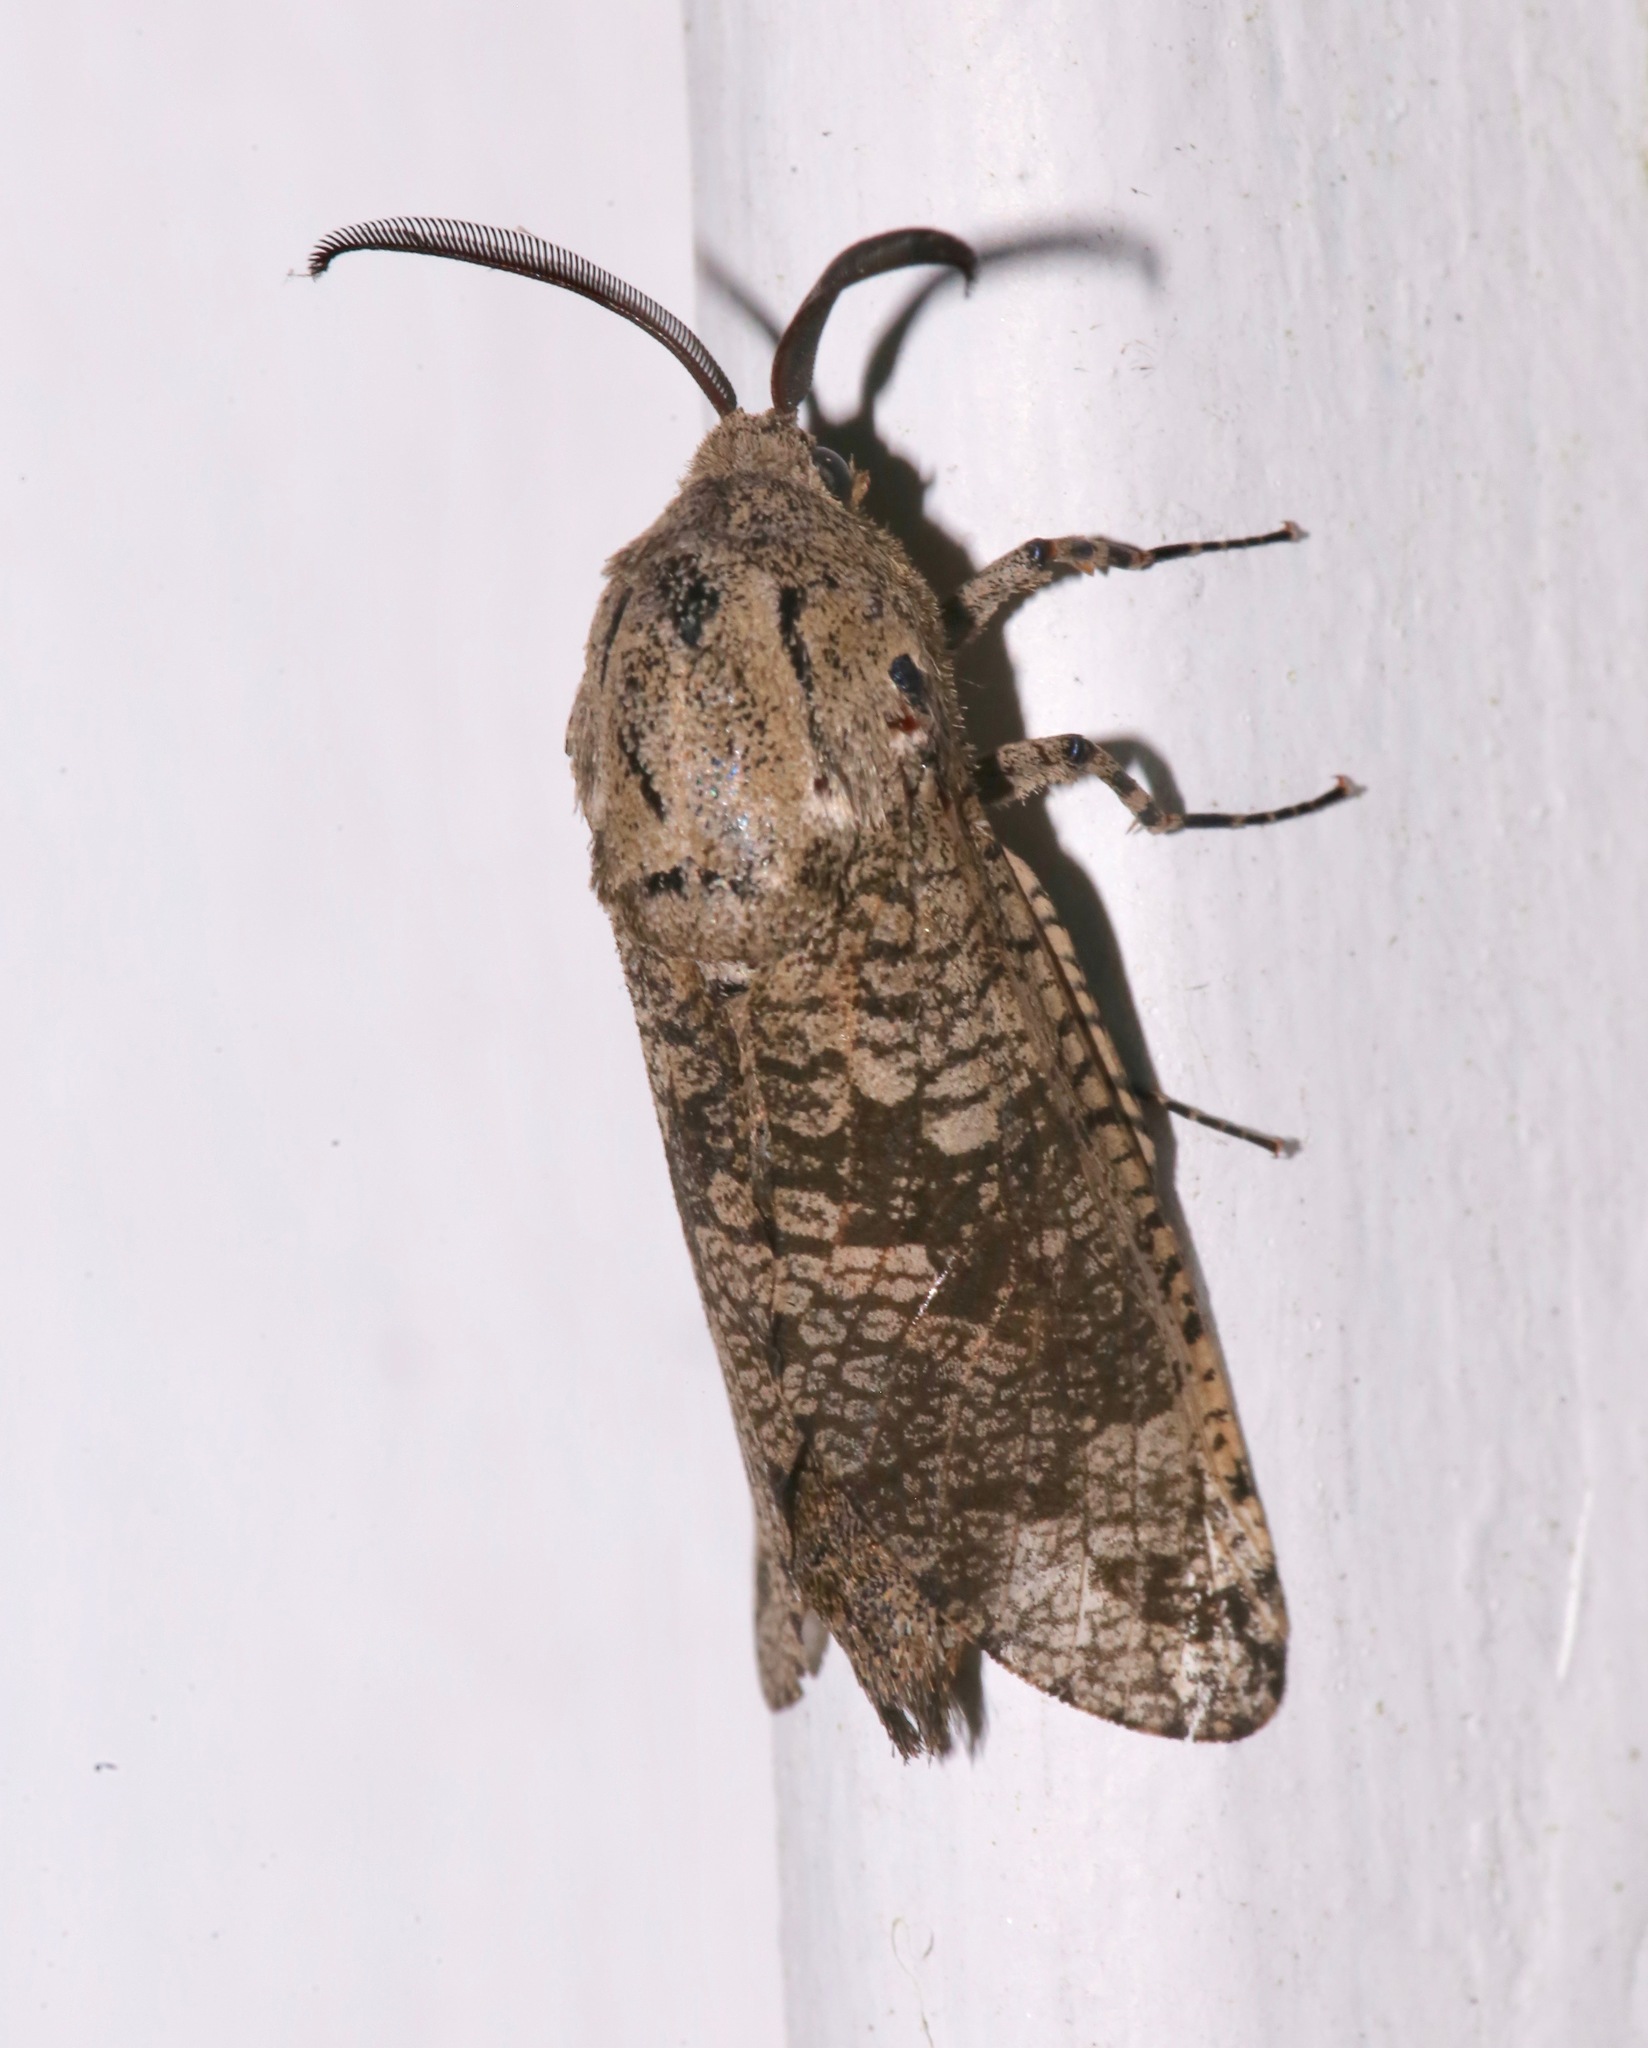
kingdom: Animalia
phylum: Arthropoda
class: Insecta
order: Lepidoptera
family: Cossidae
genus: Prionoxystus
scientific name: Prionoxystus robiniae
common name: Carpenterworm
